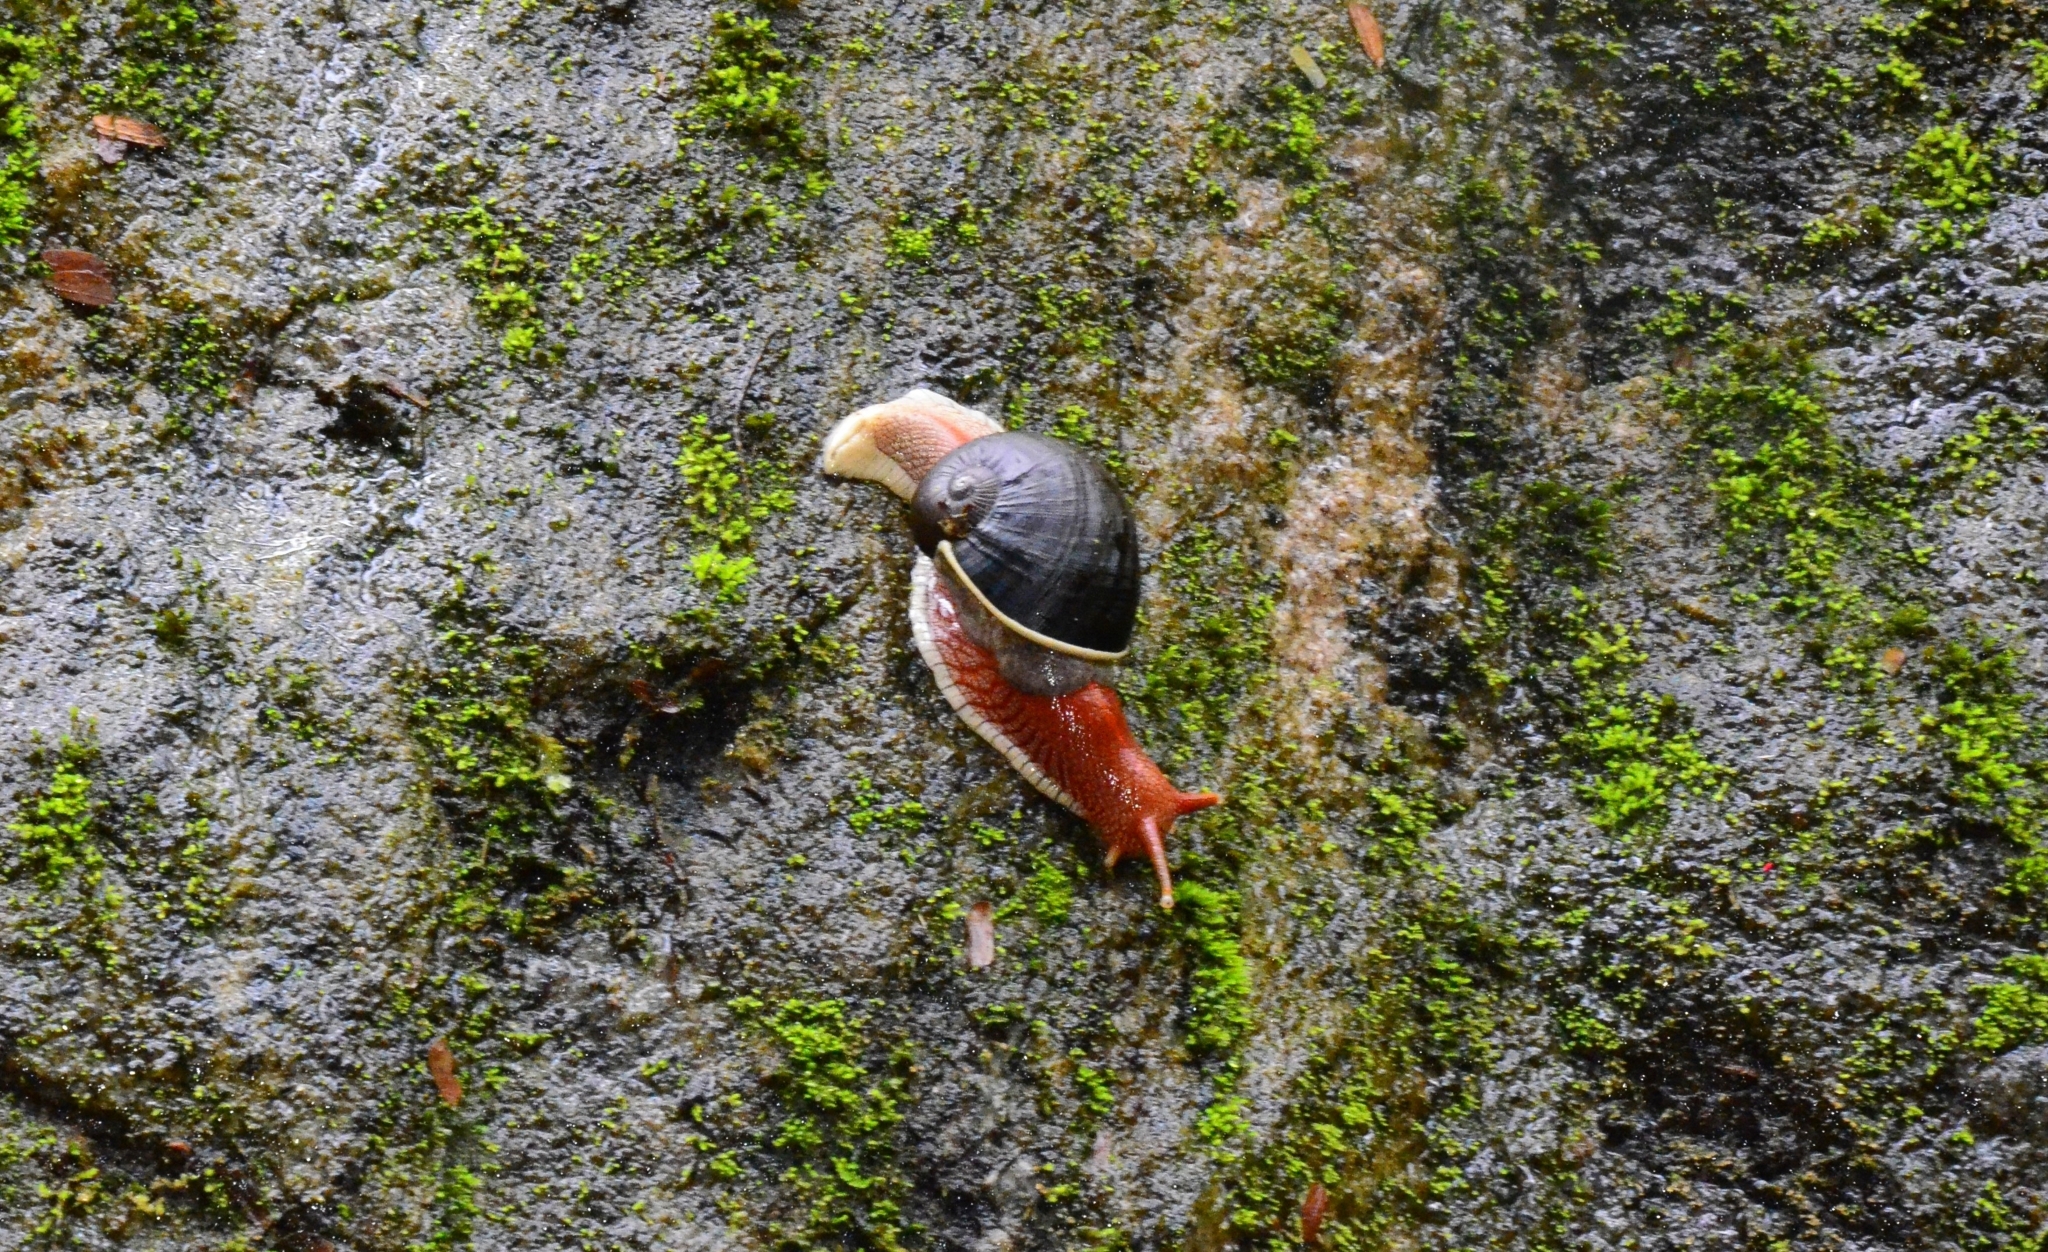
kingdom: Animalia
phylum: Mollusca
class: Gastropoda
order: Stylommatophora
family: Ariophantidae
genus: Indrella
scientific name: Indrella ampulla
